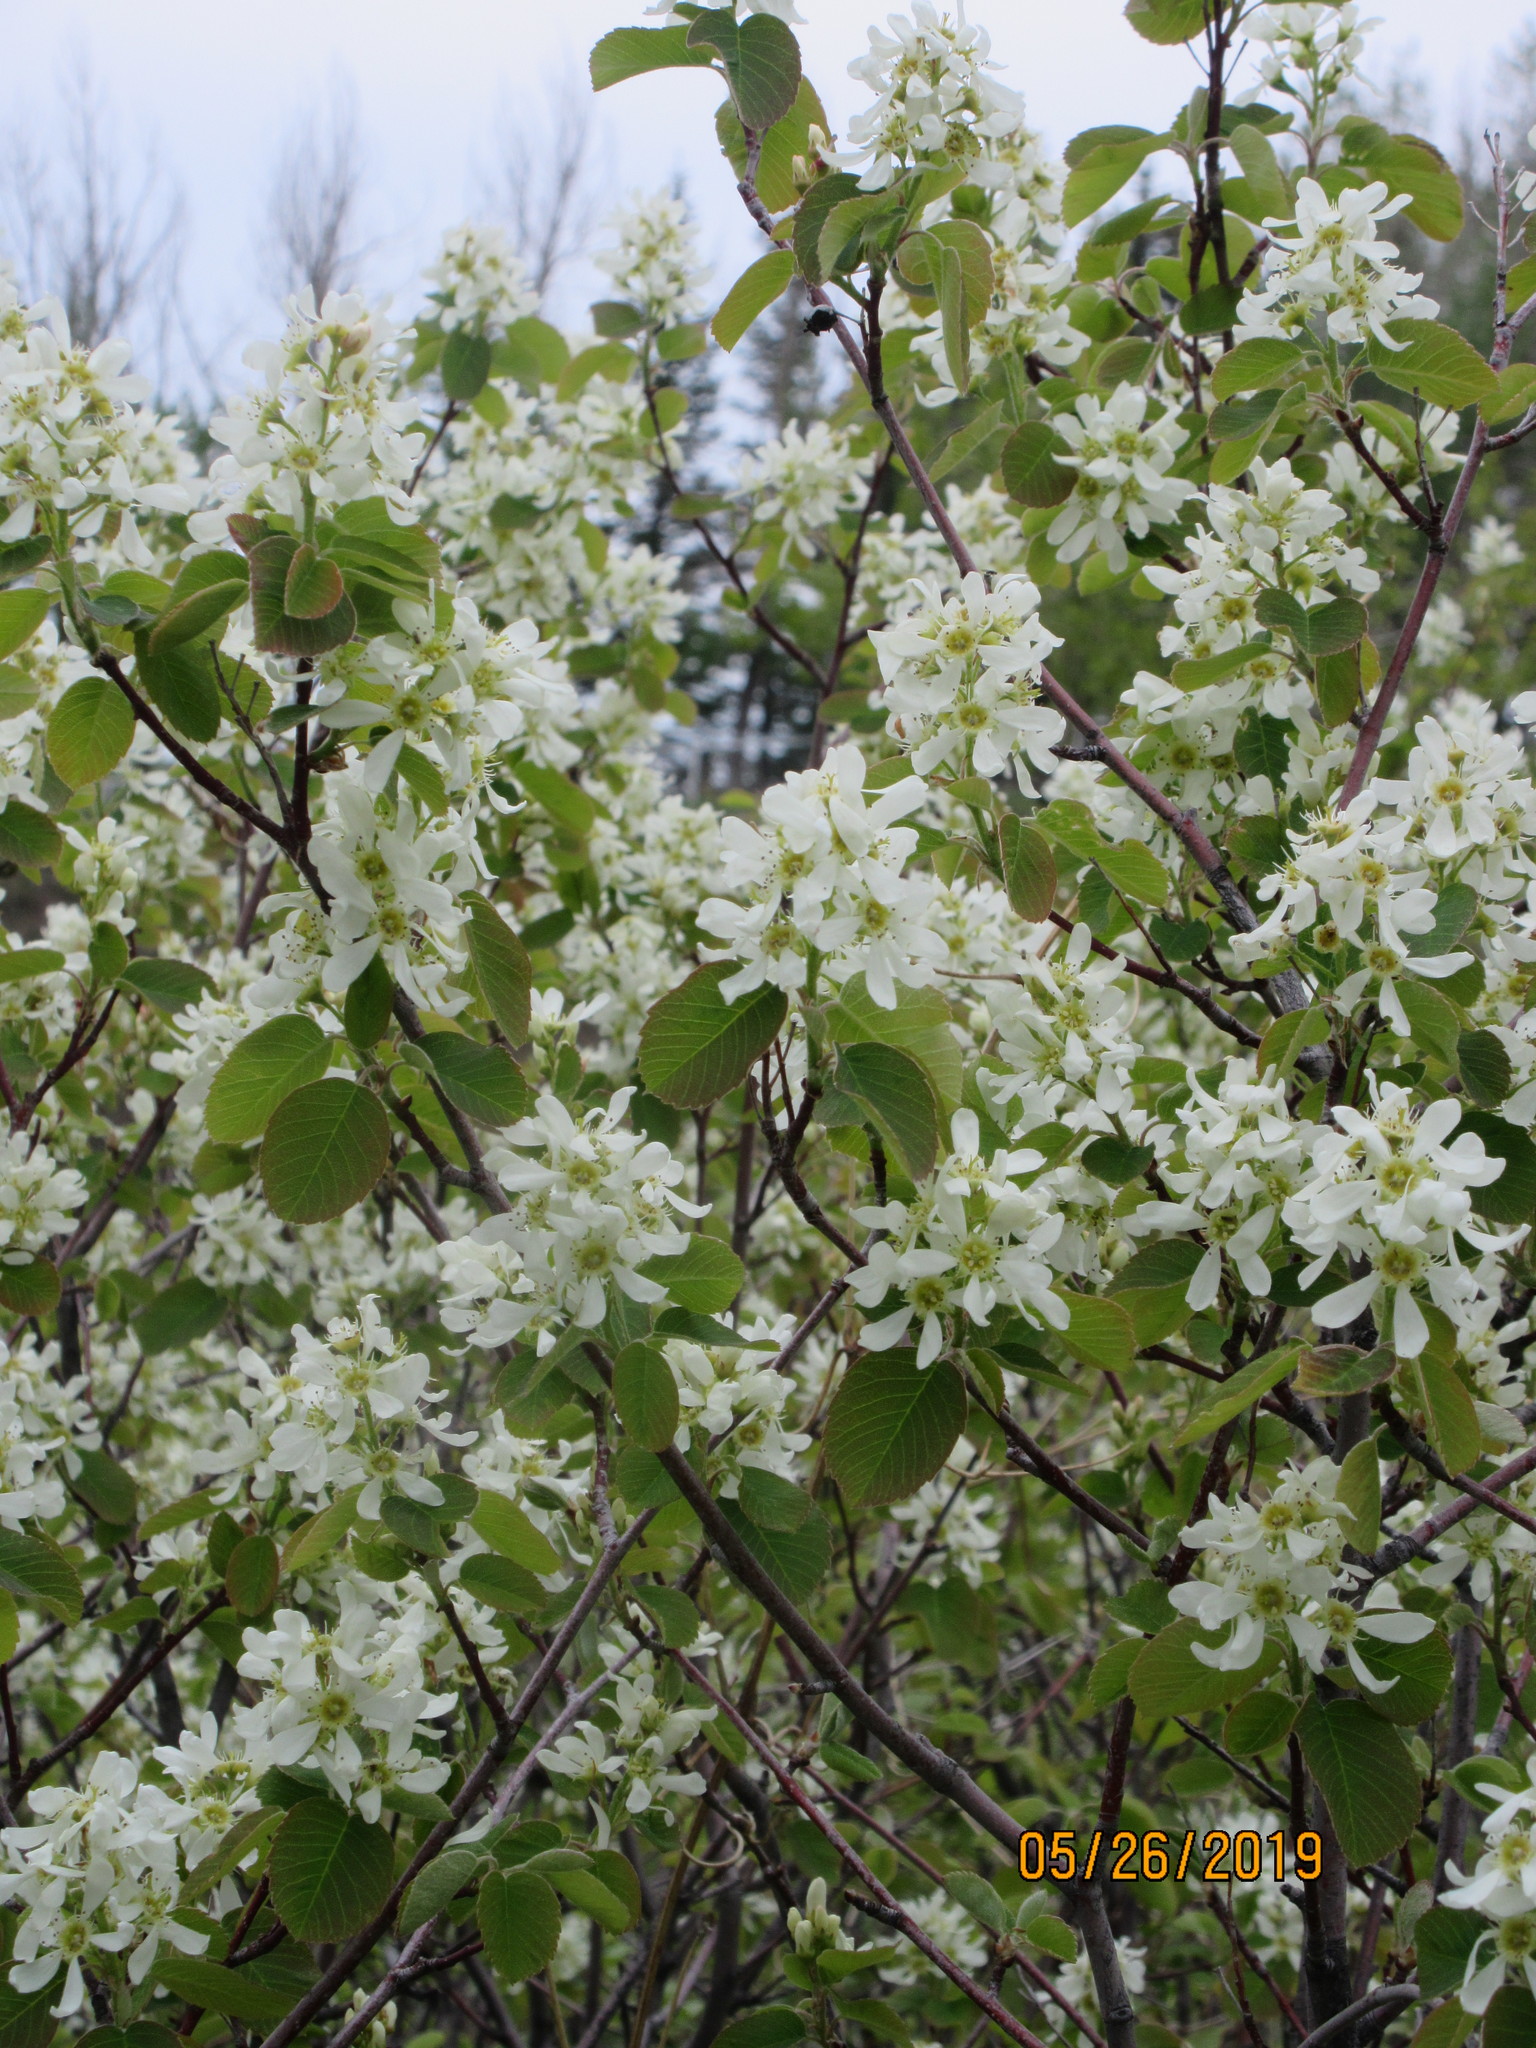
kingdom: Plantae
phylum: Tracheophyta
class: Magnoliopsida
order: Rosales
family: Rosaceae
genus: Amelanchier
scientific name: Amelanchier alnifolia
